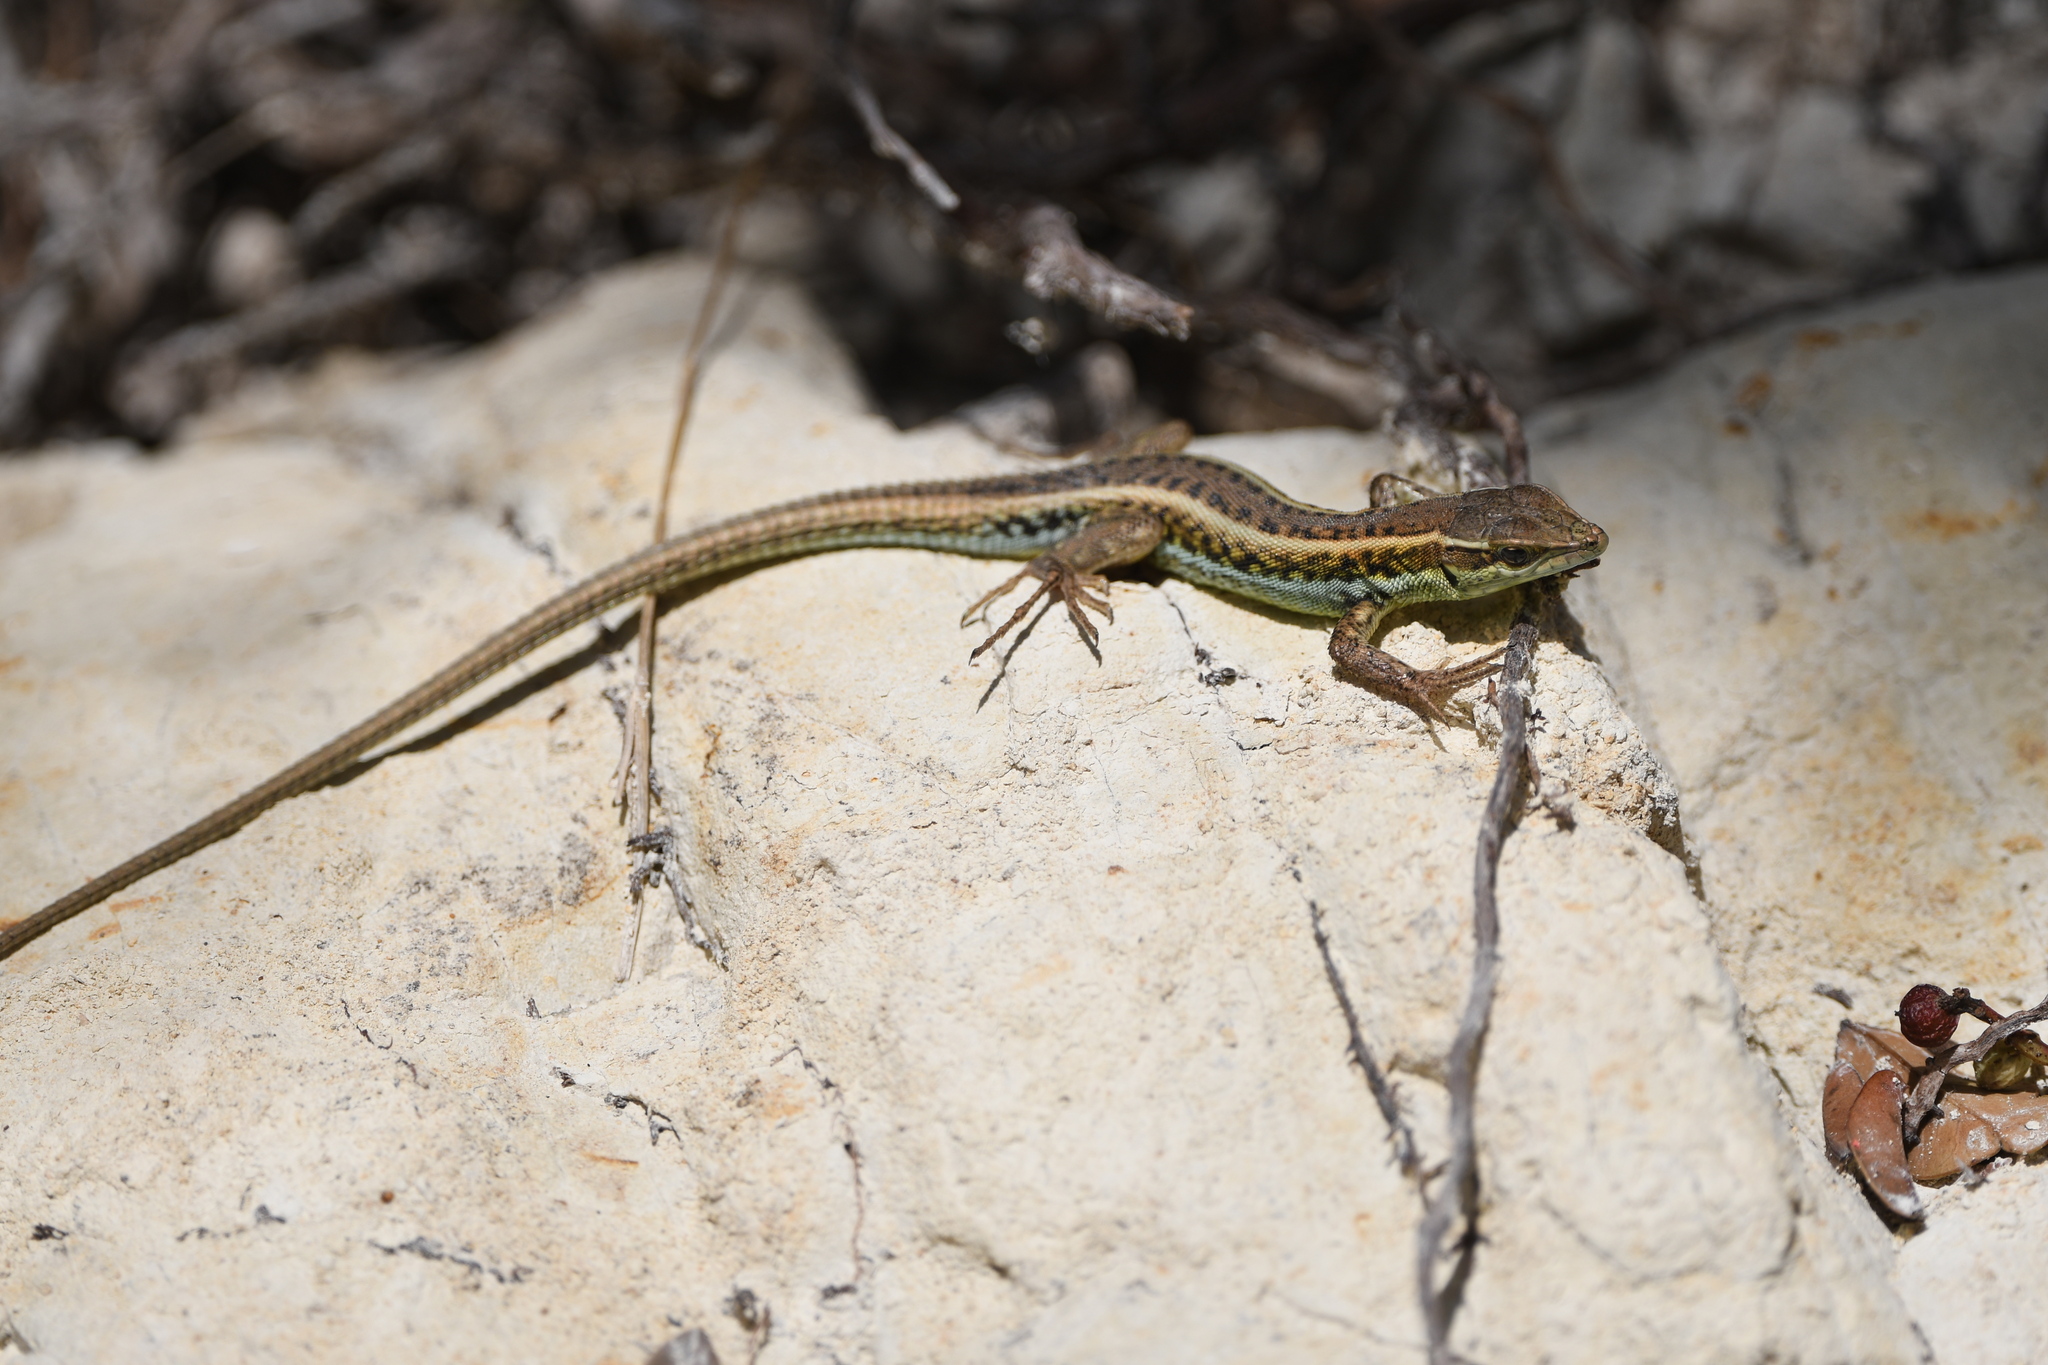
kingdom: Animalia
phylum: Chordata
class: Squamata
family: Lacertidae
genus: Ophisops
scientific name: Ophisops elegans
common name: Snake-eyed lizard
